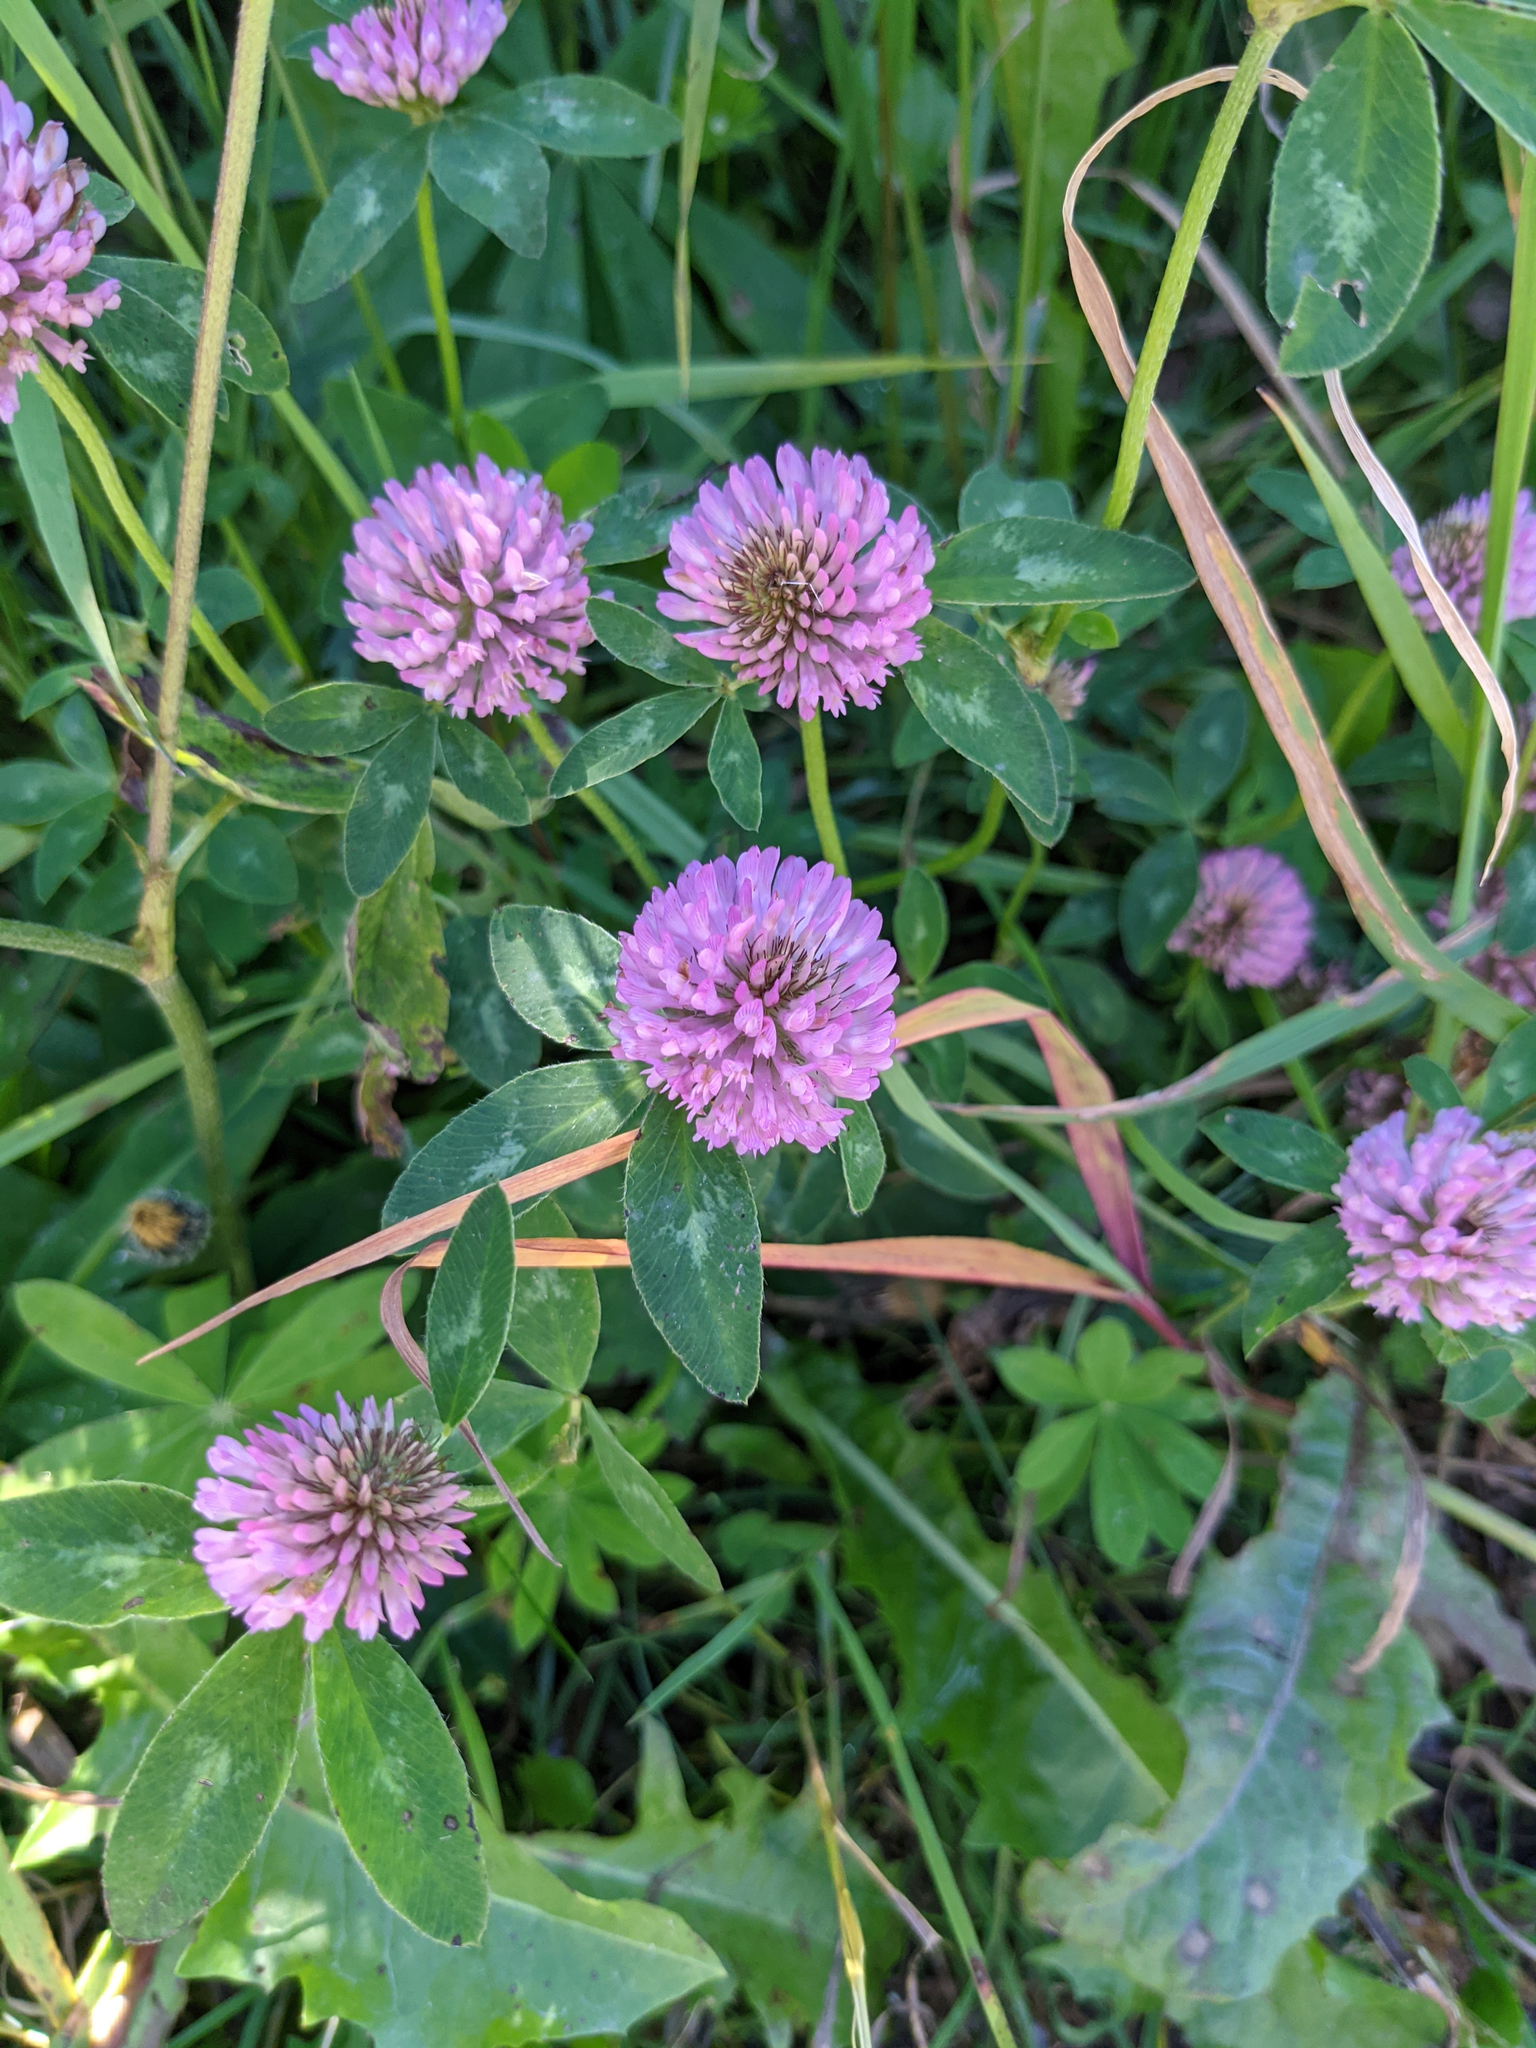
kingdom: Plantae
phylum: Tracheophyta
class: Magnoliopsida
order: Fabales
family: Fabaceae
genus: Trifolium
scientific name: Trifolium pratense
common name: Red clover
